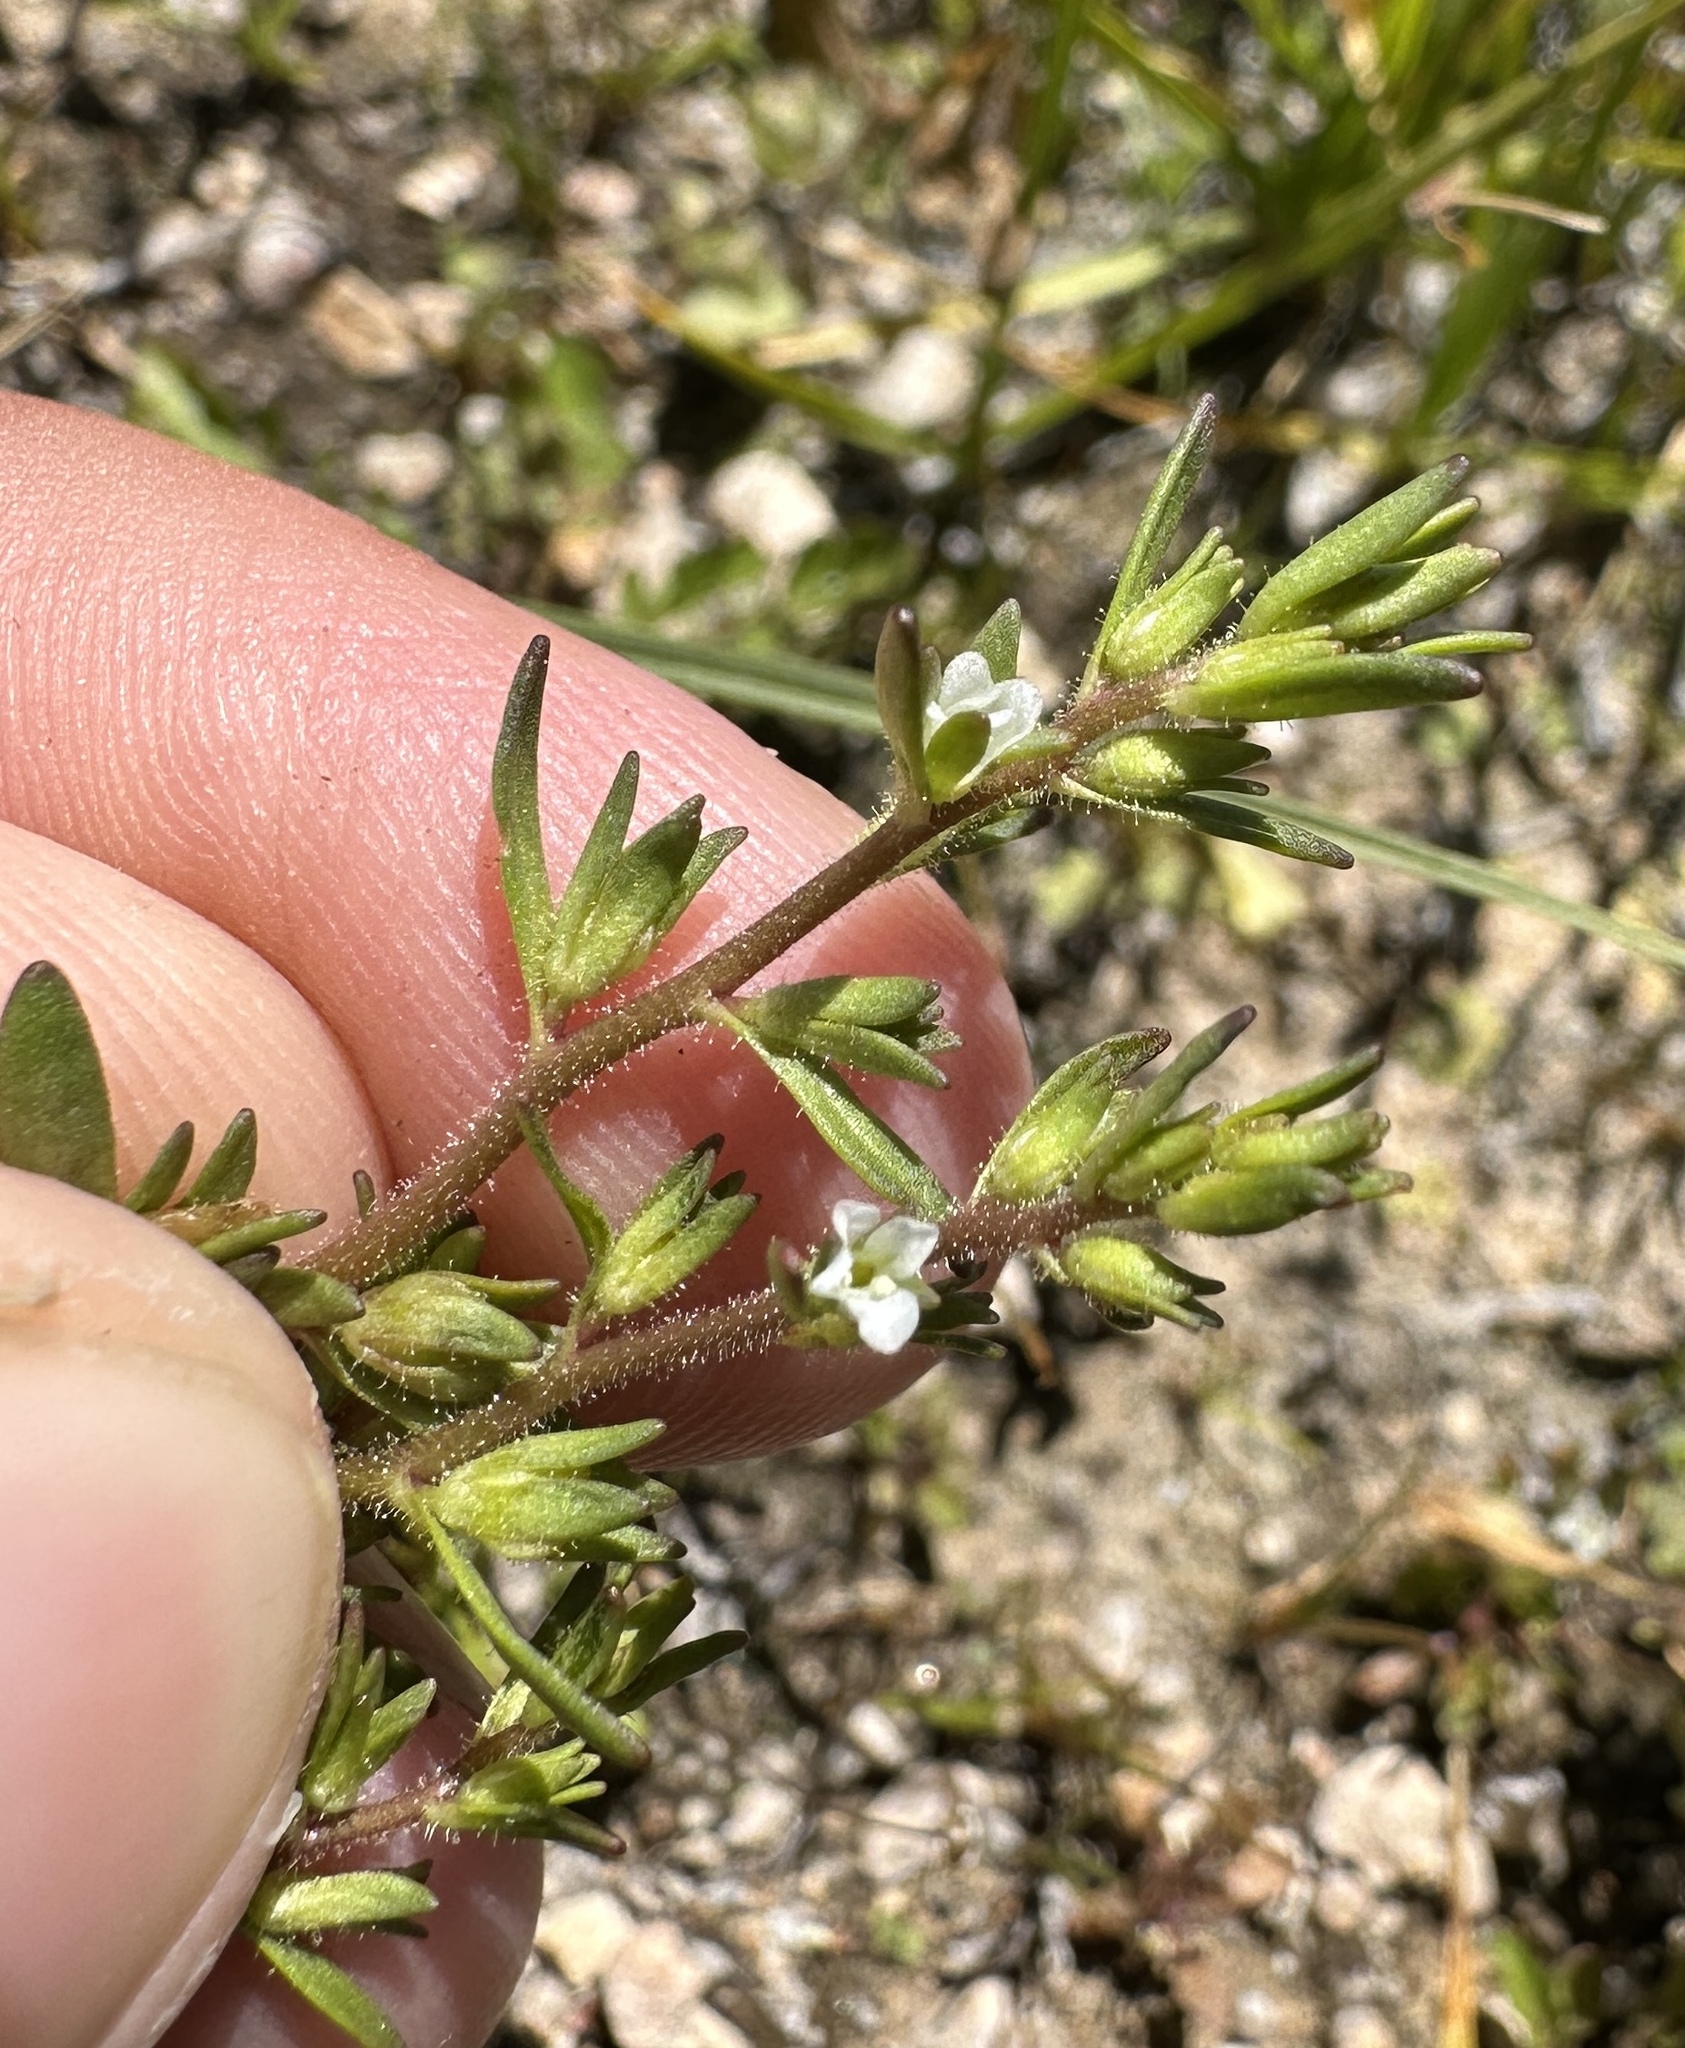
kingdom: Plantae
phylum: Tracheophyta
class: Magnoliopsida
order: Lamiales
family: Plantaginaceae
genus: Veronica
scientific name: Veronica peregrina
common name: Neckweed
